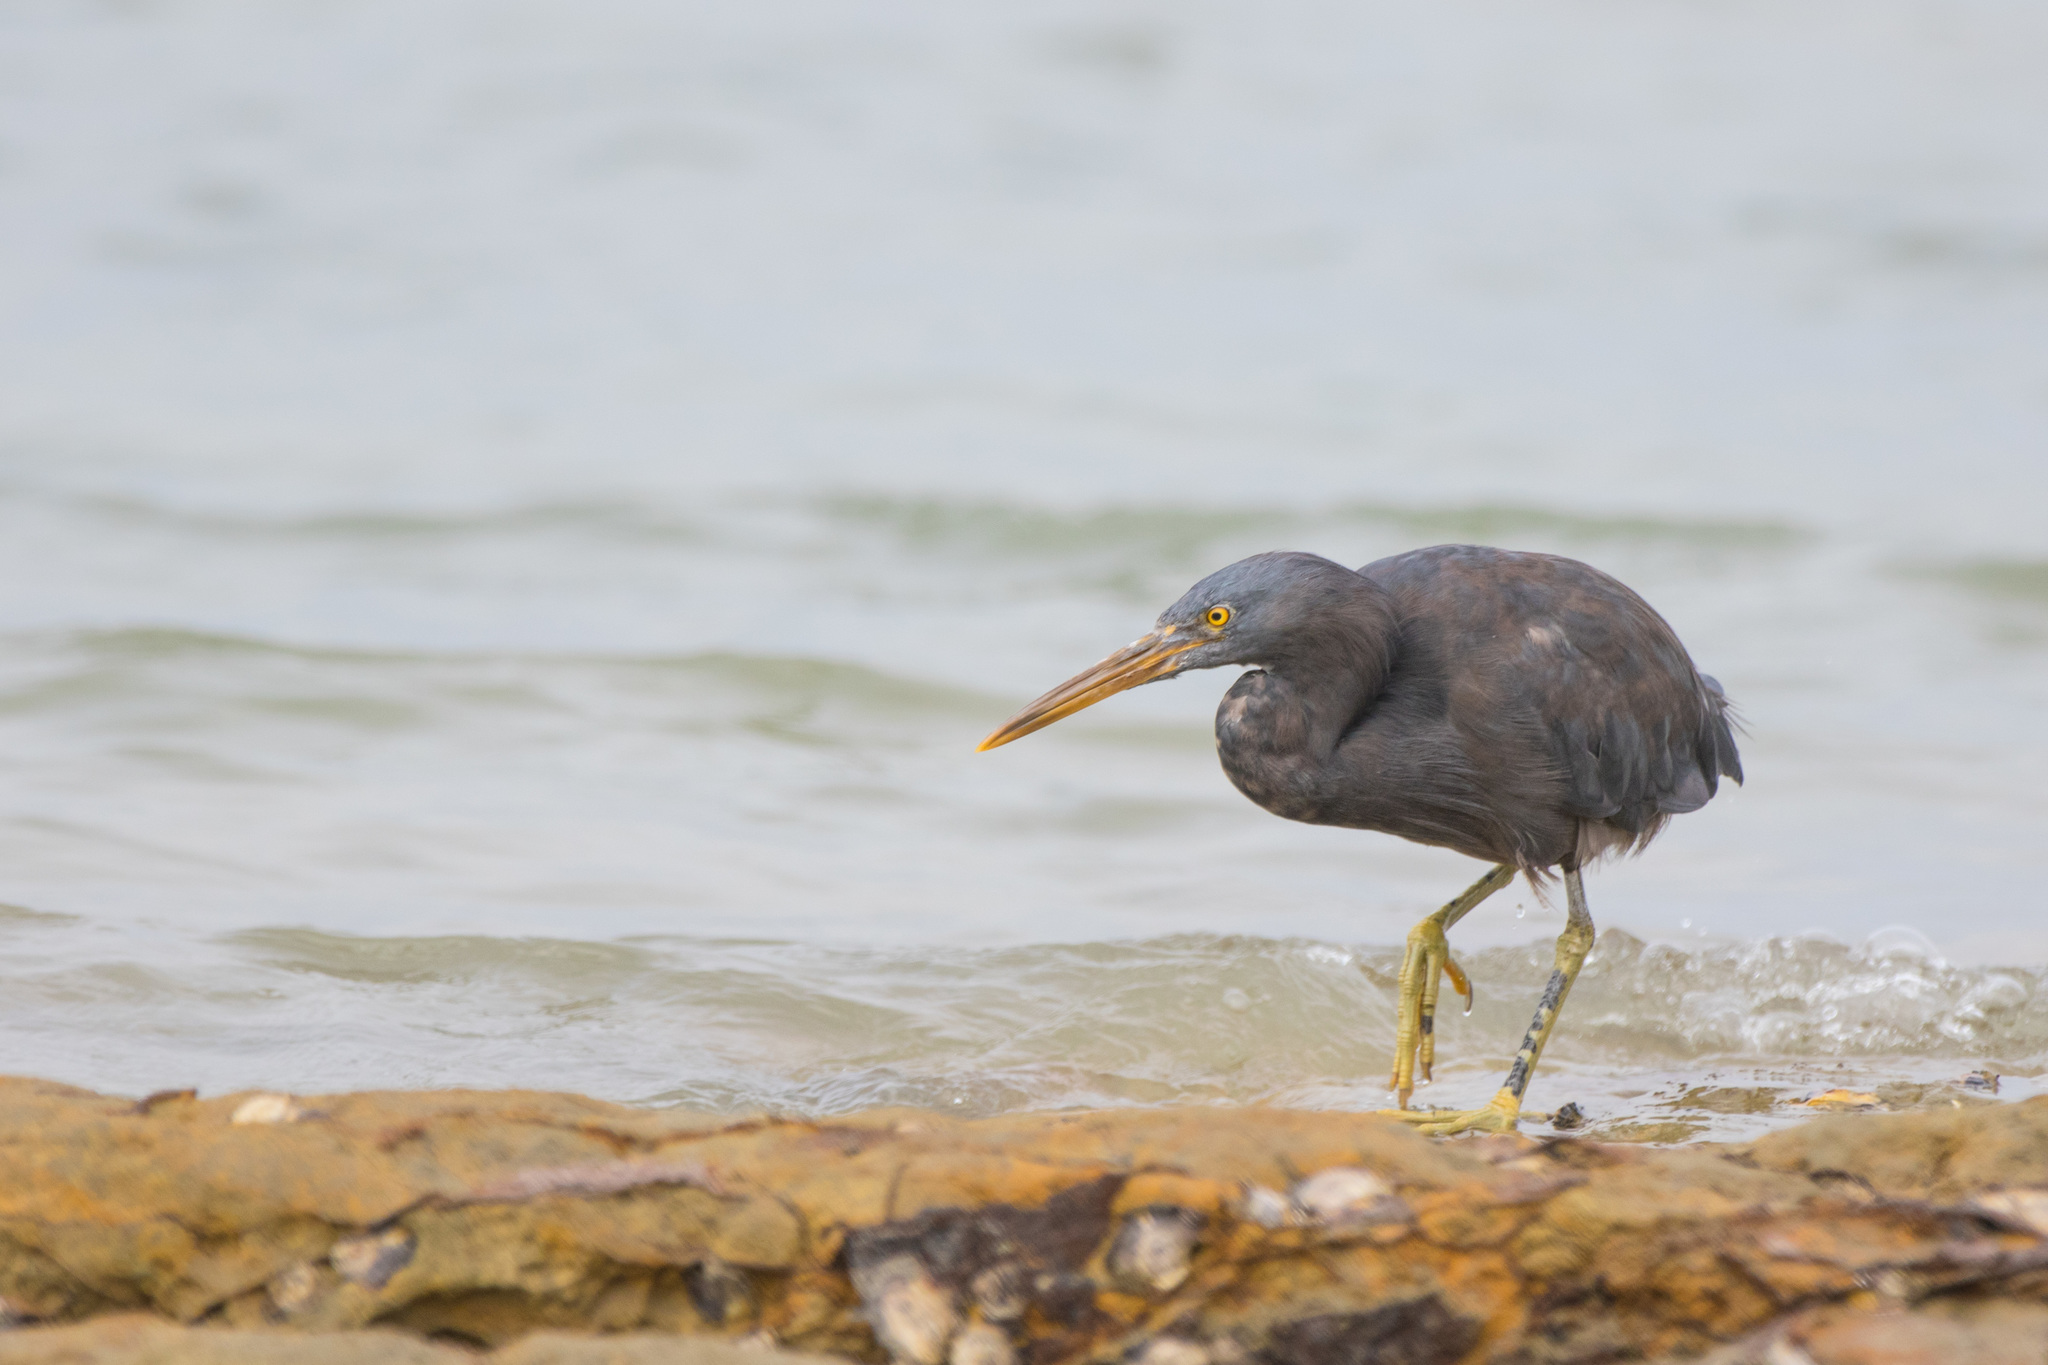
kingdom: Animalia
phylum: Chordata
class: Aves
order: Pelecaniformes
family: Ardeidae
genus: Egretta
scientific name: Egretta sacra
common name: Pacific reef heron
